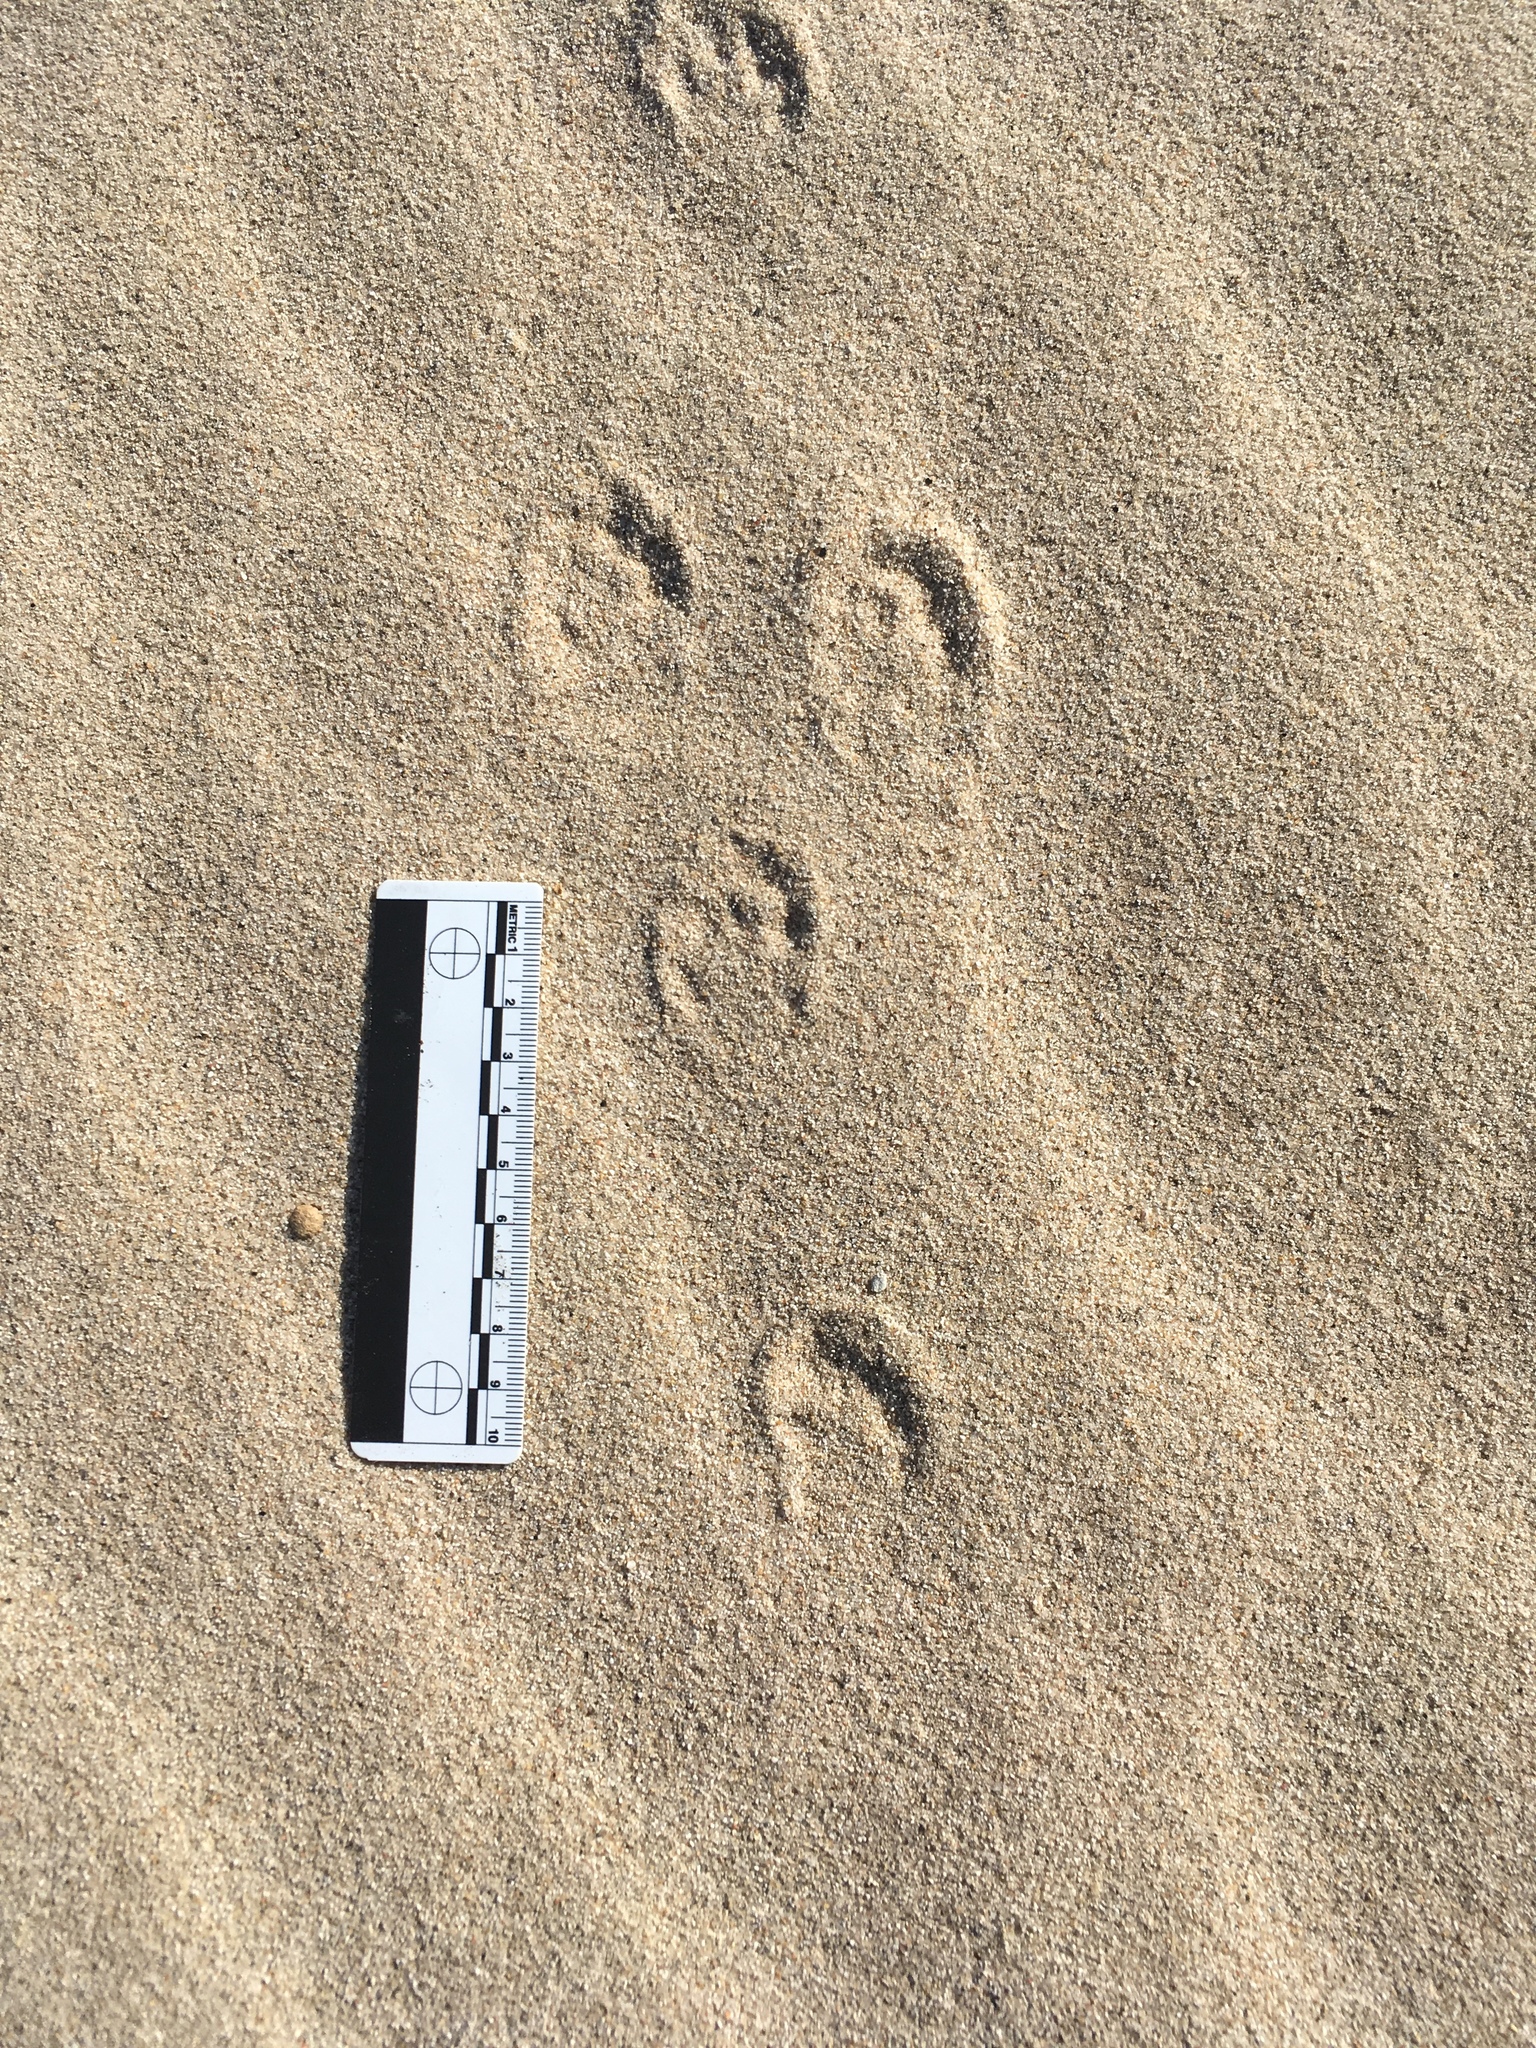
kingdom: Animalia
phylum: Chordata
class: Mammalia
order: Lagomorpha
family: Leporidae
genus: Sylvilagus
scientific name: Sylvilagus audubonii
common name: Desert cottontail
